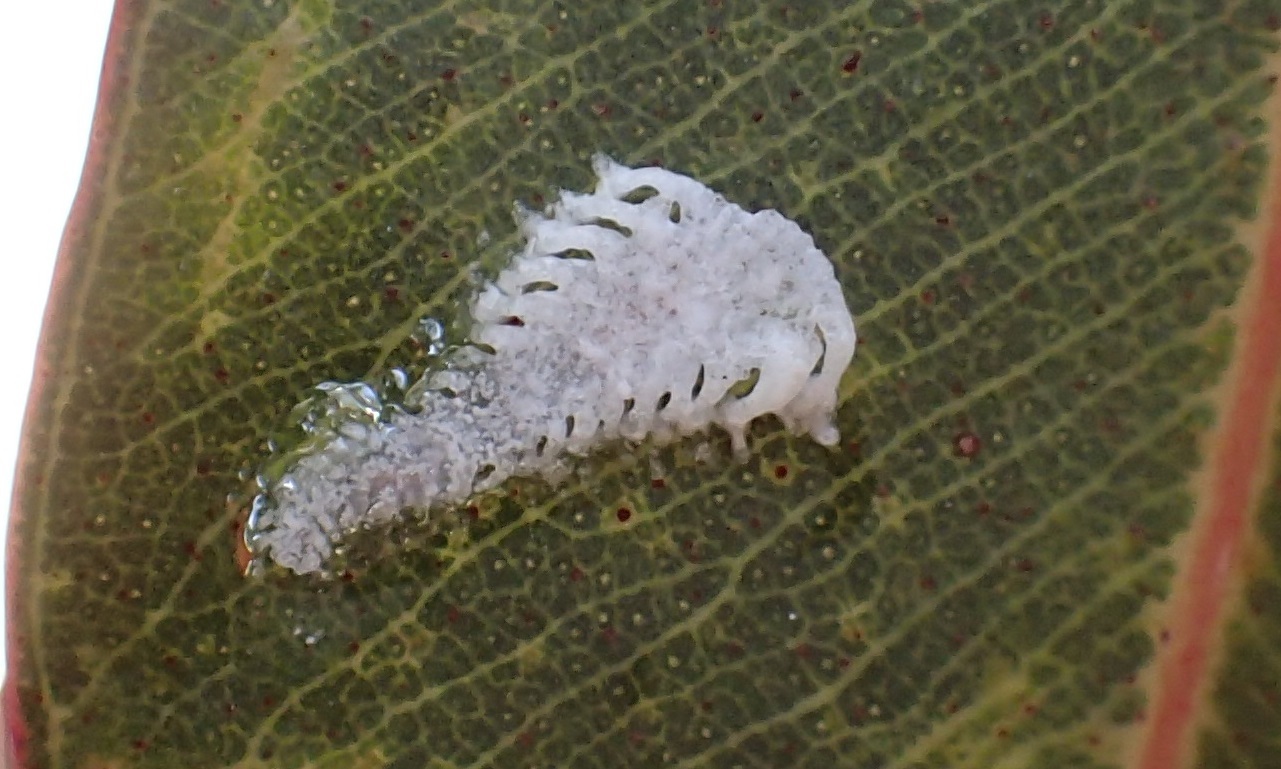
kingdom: Animalia
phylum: Arthropoda
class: Insecta
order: Hemiptera
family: Aphalaridae
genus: Eucalyptolyma
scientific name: Eucalyptolyma maideni
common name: Spotted gum lerp psyllid
